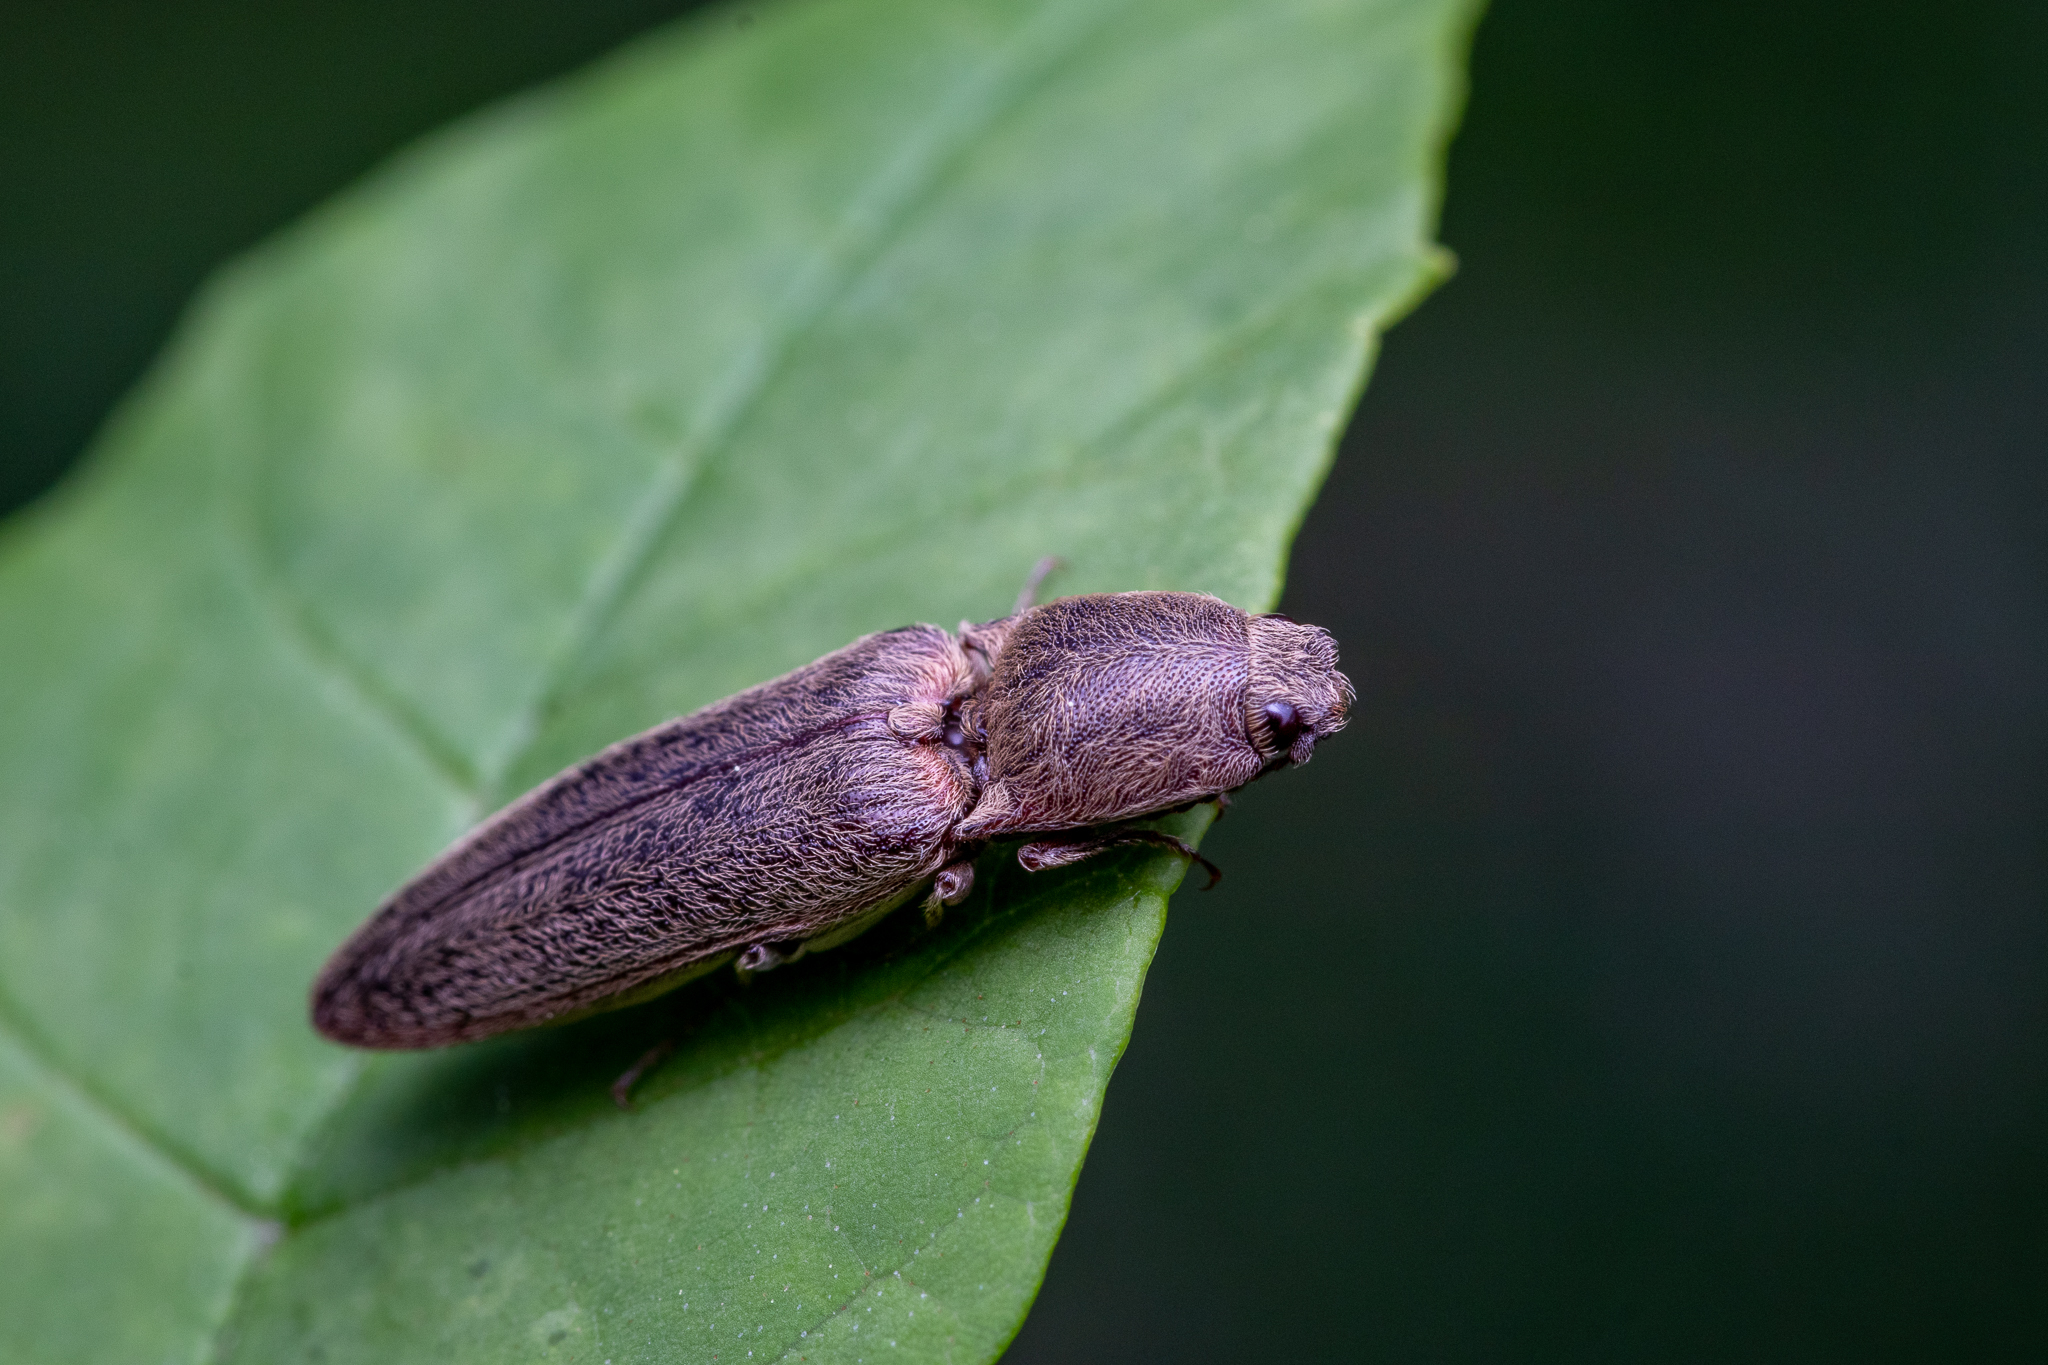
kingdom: Animalia
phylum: Arthropoda
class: Insecta
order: Coleoptera
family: Elateridae
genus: Gambrinus
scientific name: Gambrinus griseus
